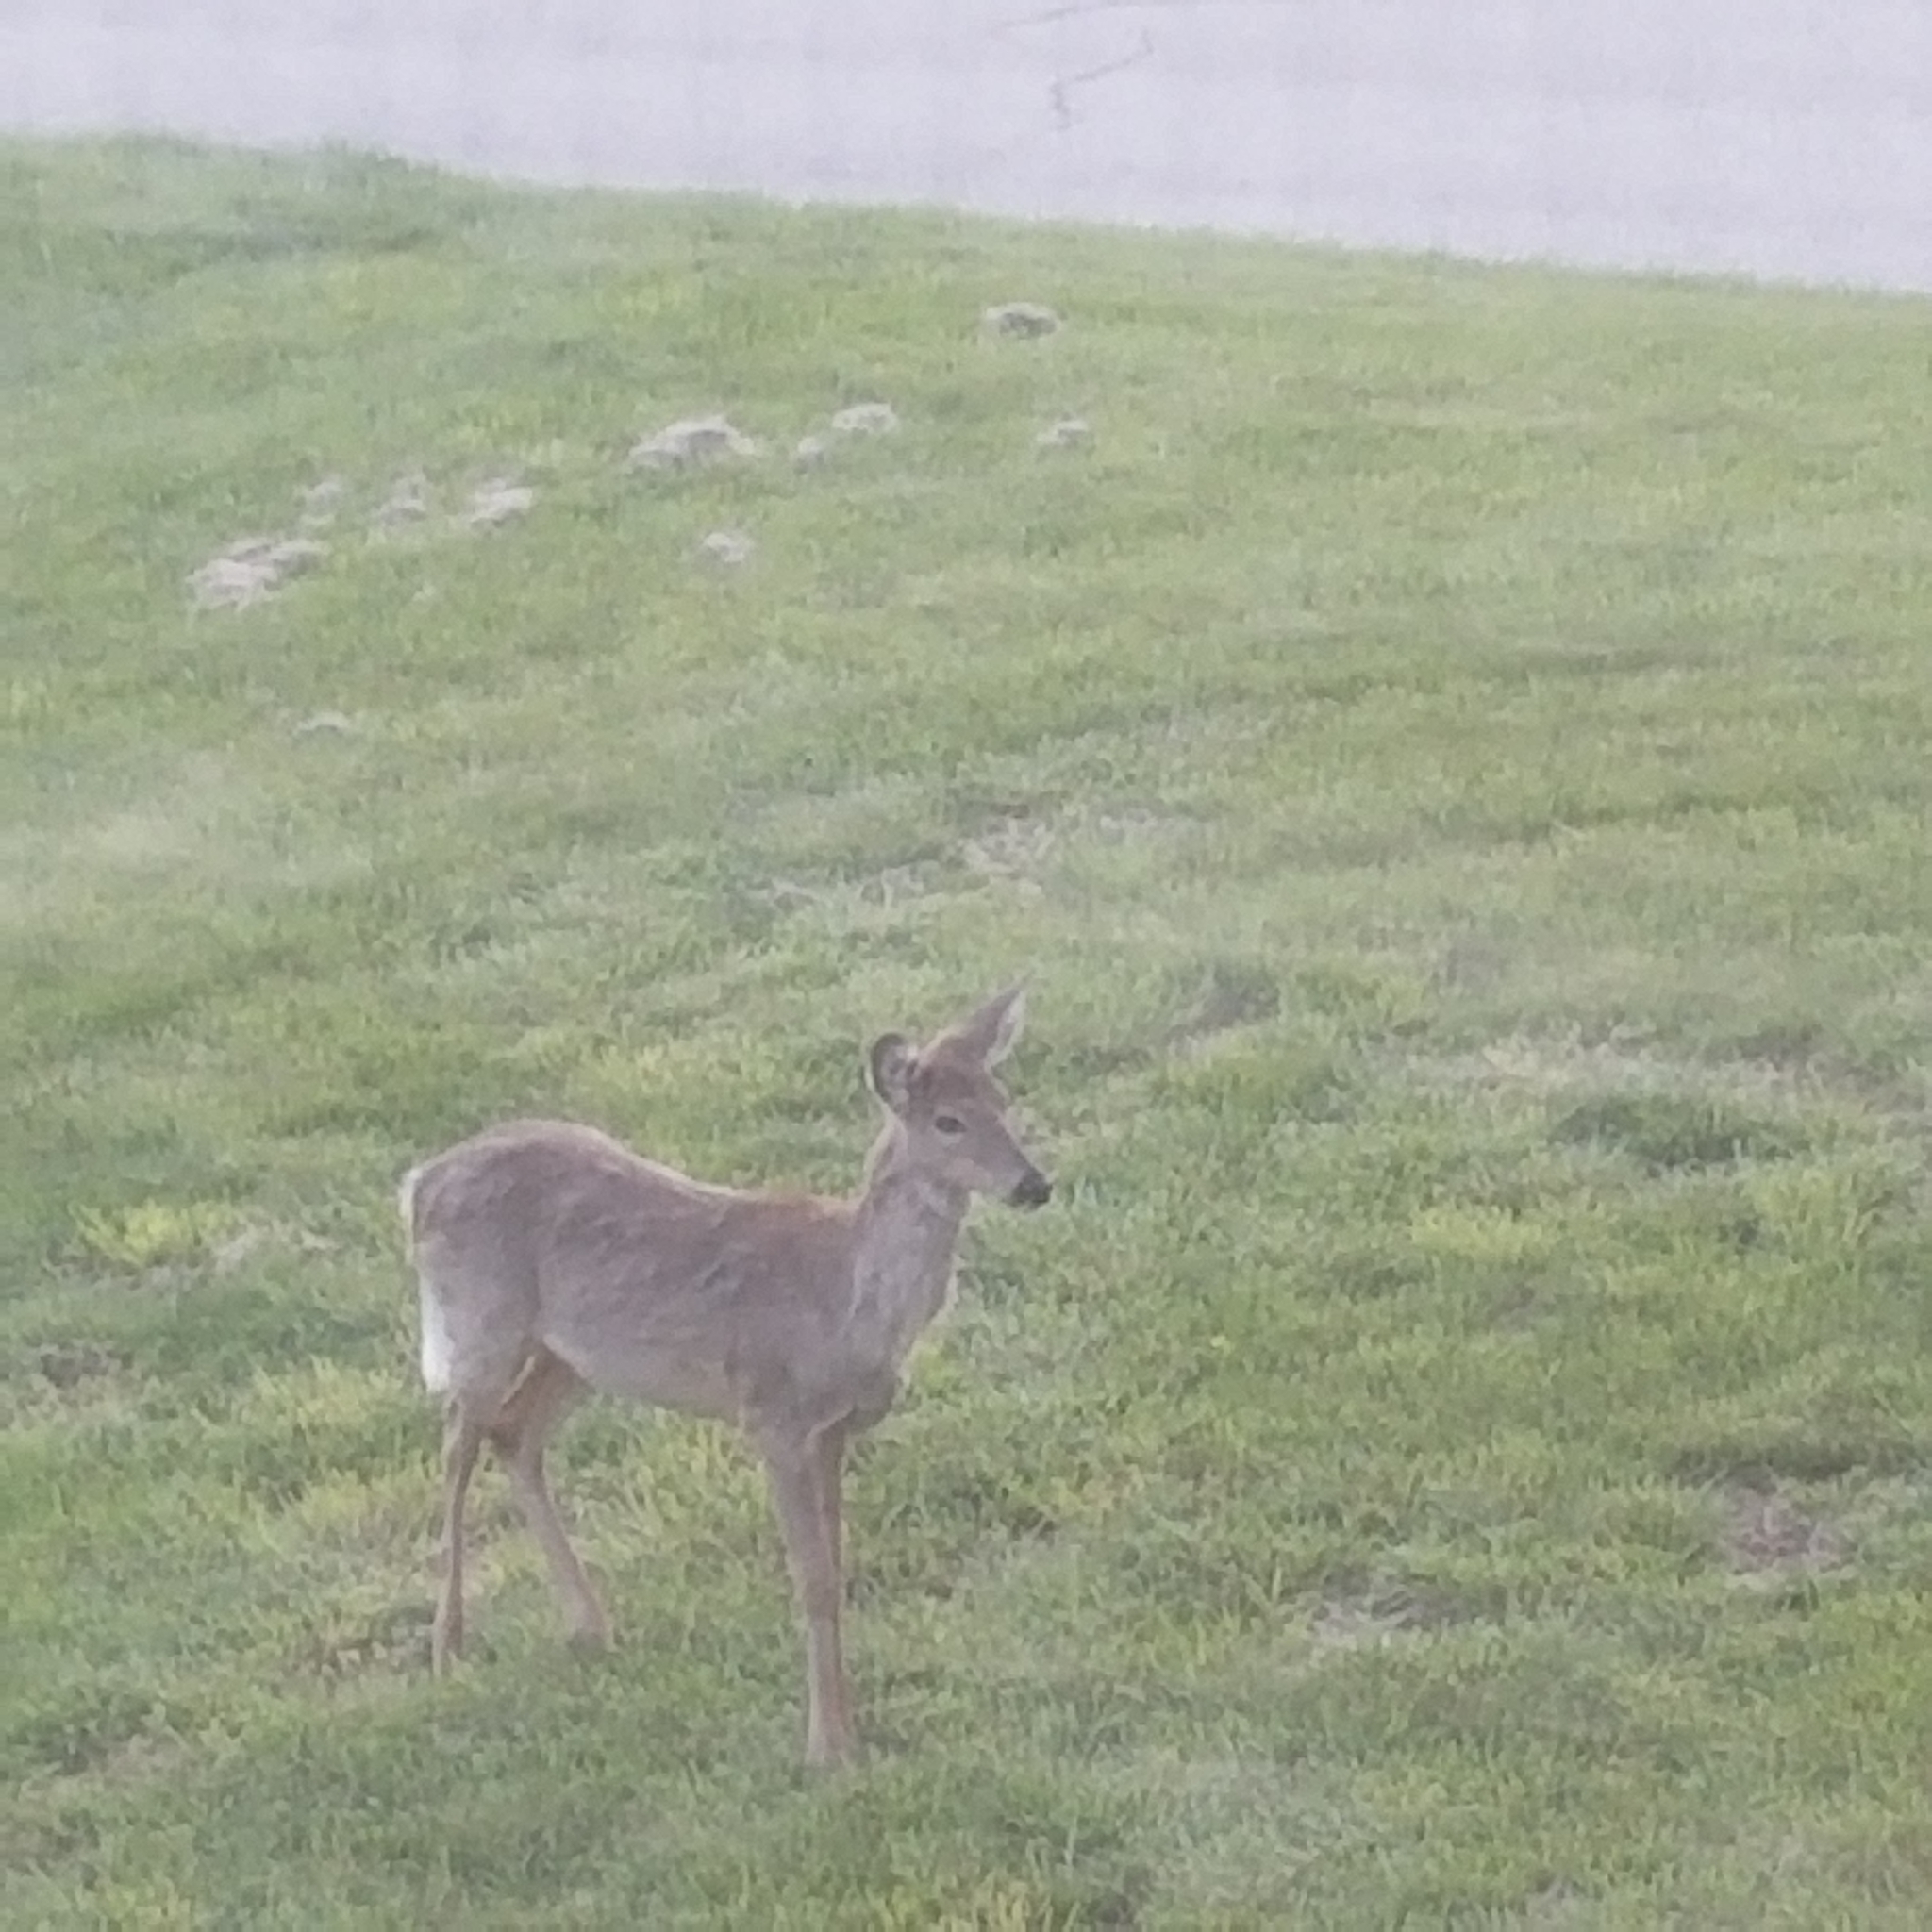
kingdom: Animalia
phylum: Chordata
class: Mammalia
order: Artiodactyla
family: Cervidae
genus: Odocoileus
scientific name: Odocoileus virginianus
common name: White-tailed deer
